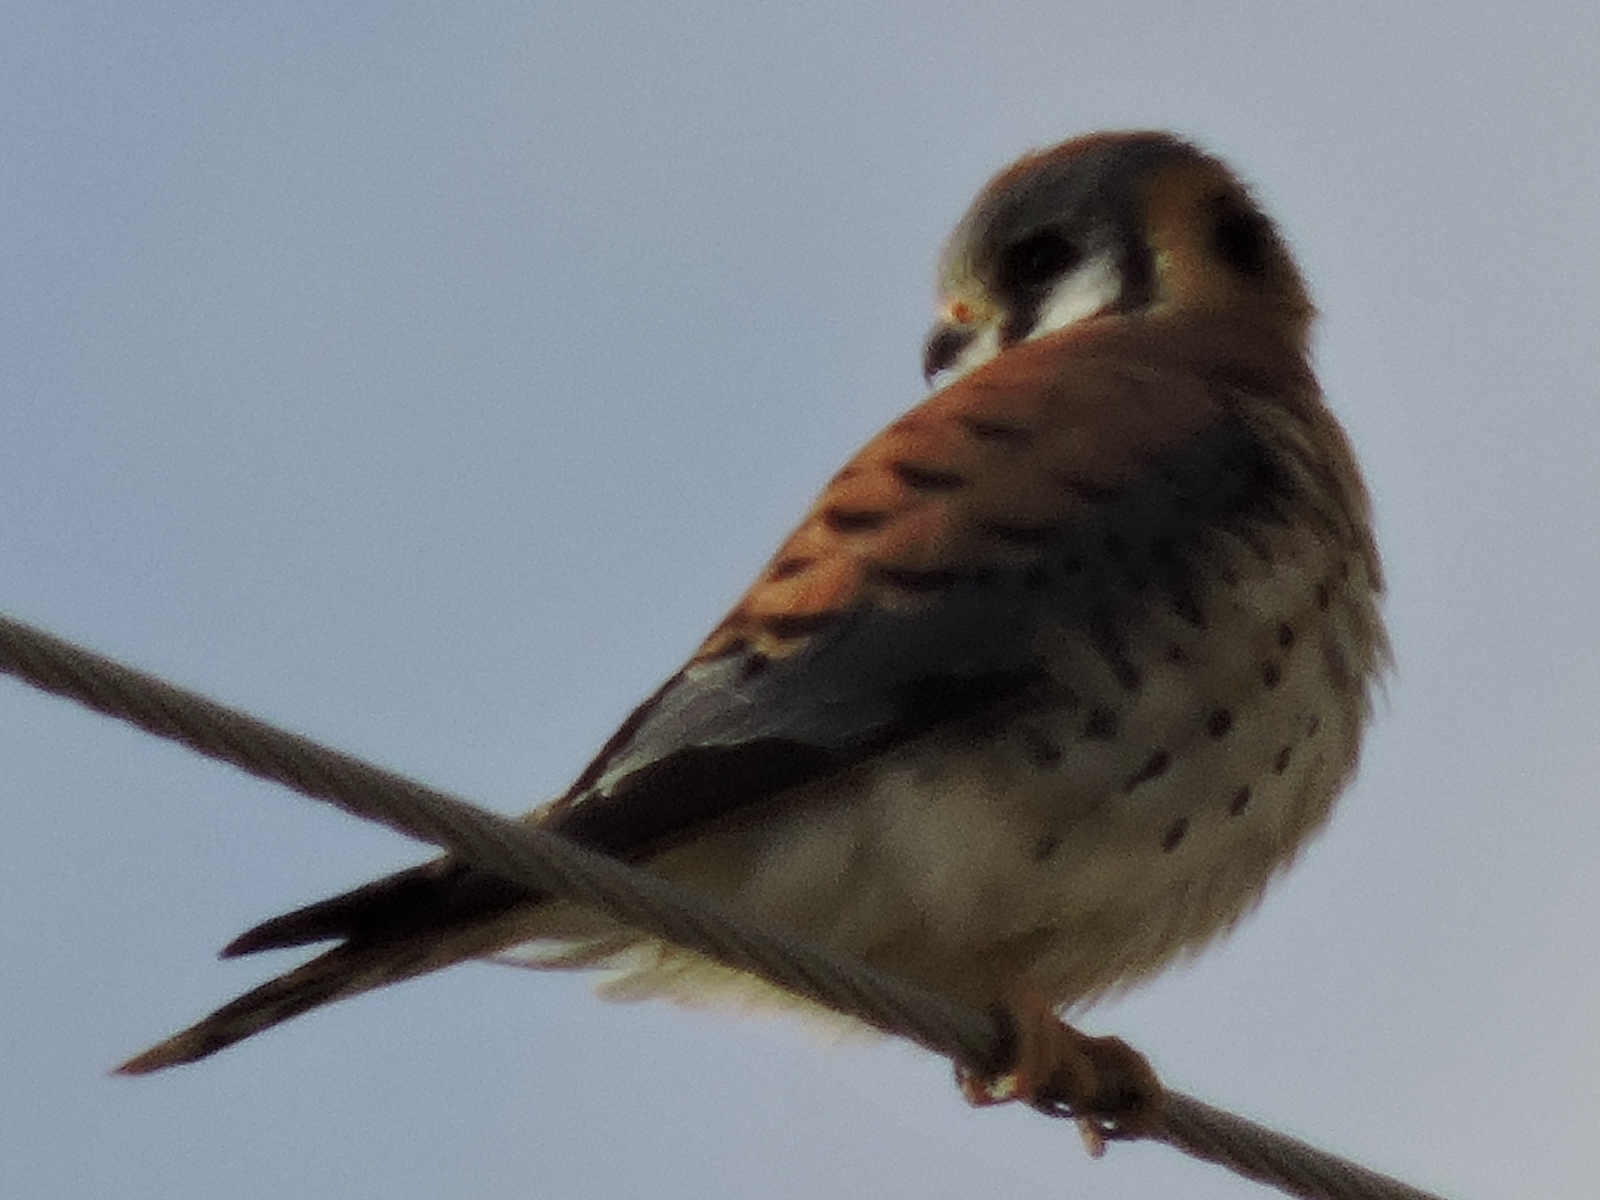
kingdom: Animalia
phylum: Chordata
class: Aves
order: Falconiformes
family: Falconidae
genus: Falco
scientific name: Falco sparverius
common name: American kestrel
